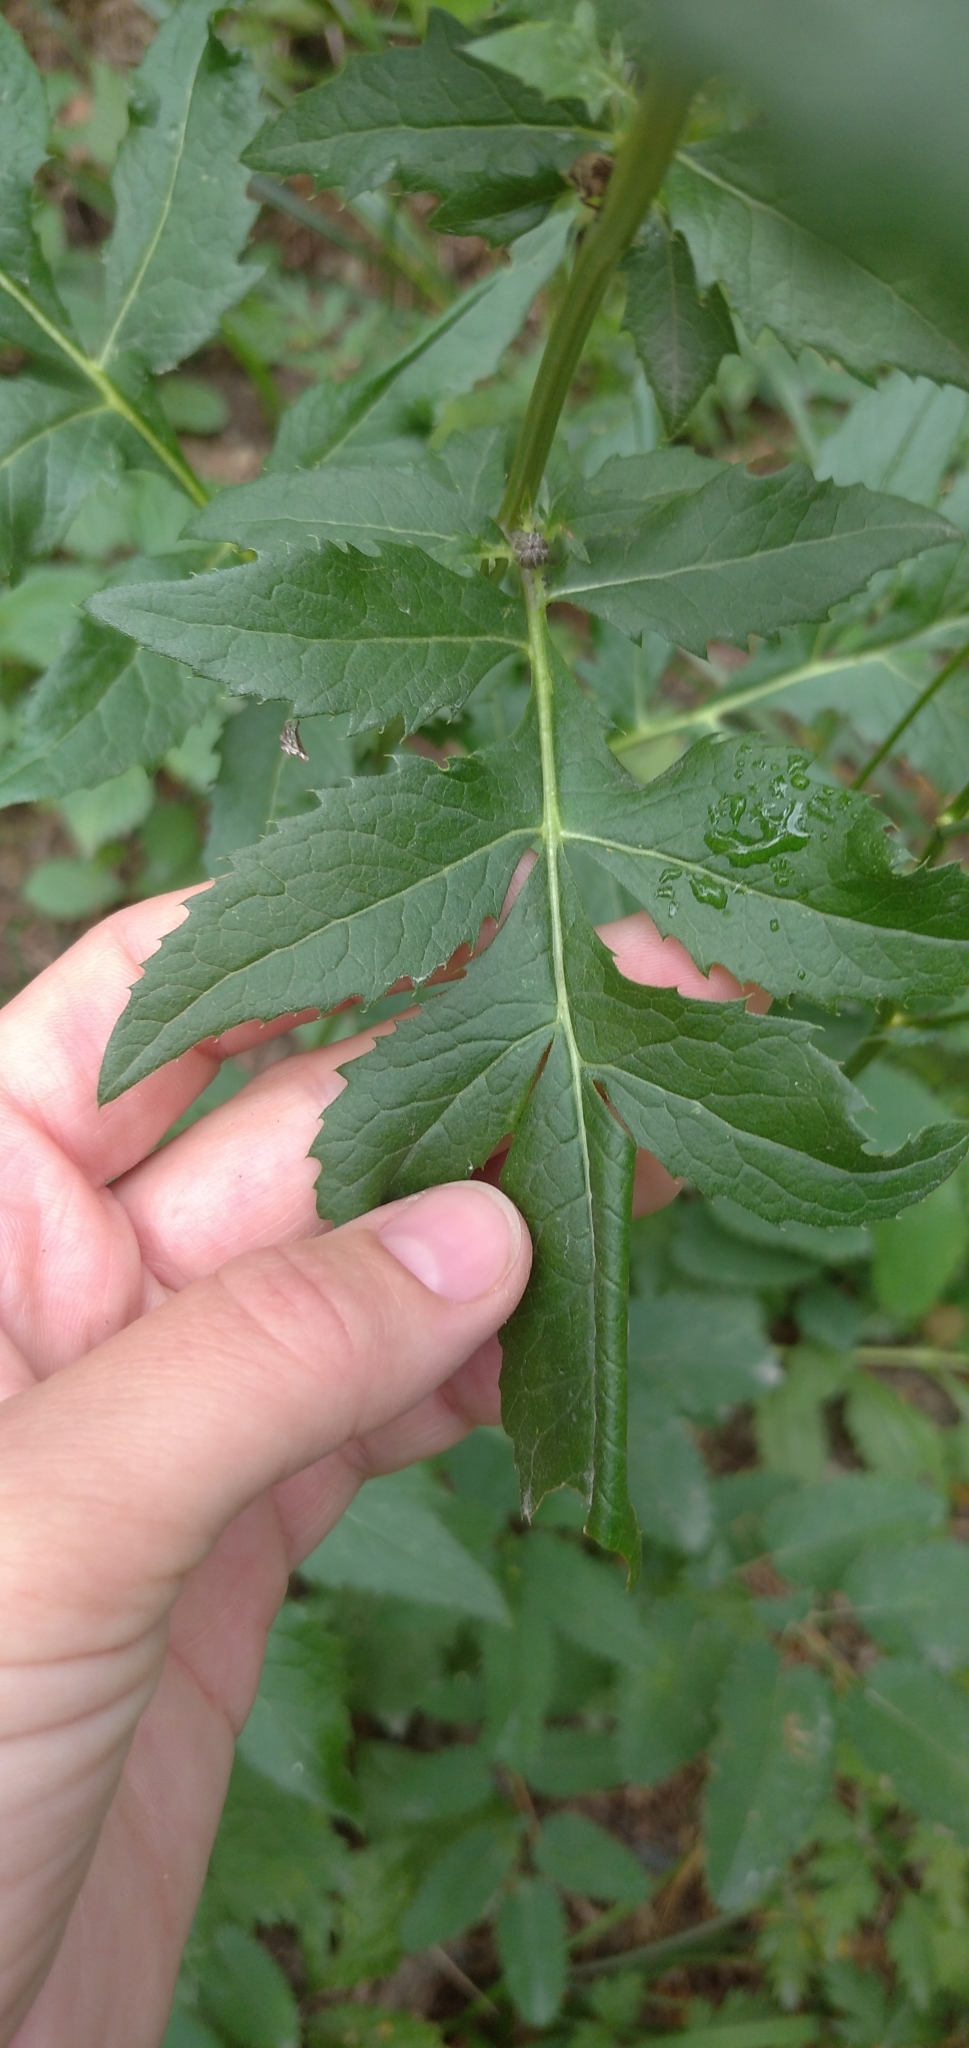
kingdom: Plantae
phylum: Tracheophyta
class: Magnoliopsida
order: Asterales
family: Asteraceae
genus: Serratula
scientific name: Serratula coronata
